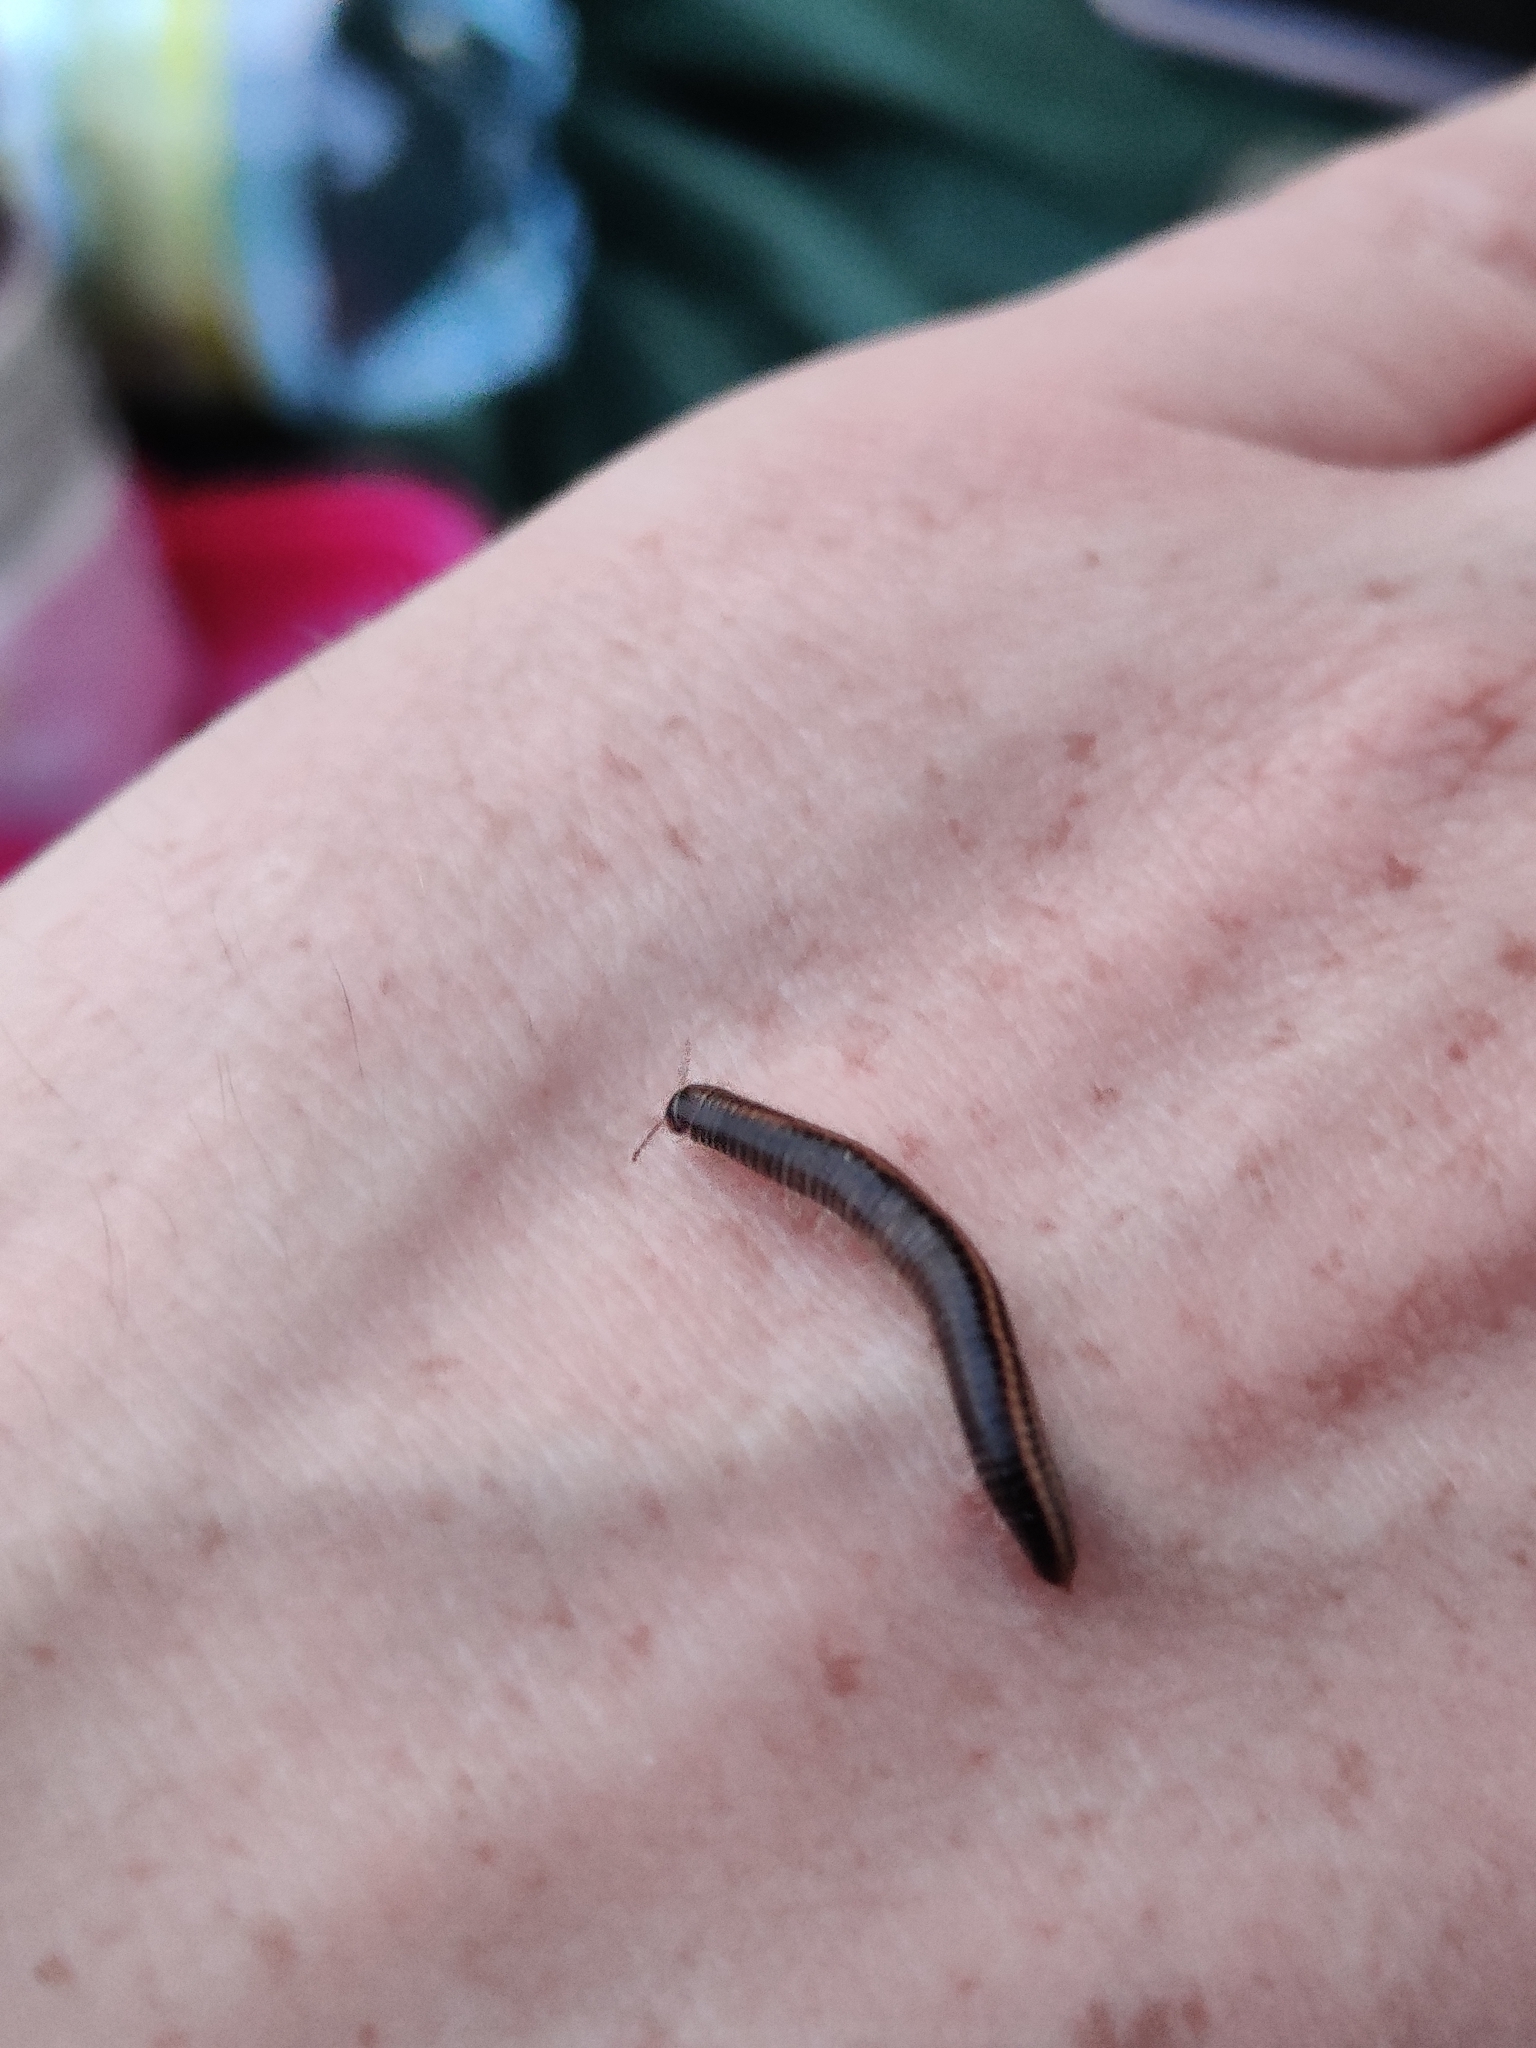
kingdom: Animalia
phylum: Arthropoda
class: Diplopoda
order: Julida
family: Julidae
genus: Ommatoiulus
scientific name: Ommatoiulus sabulosus
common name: Striped millipede
